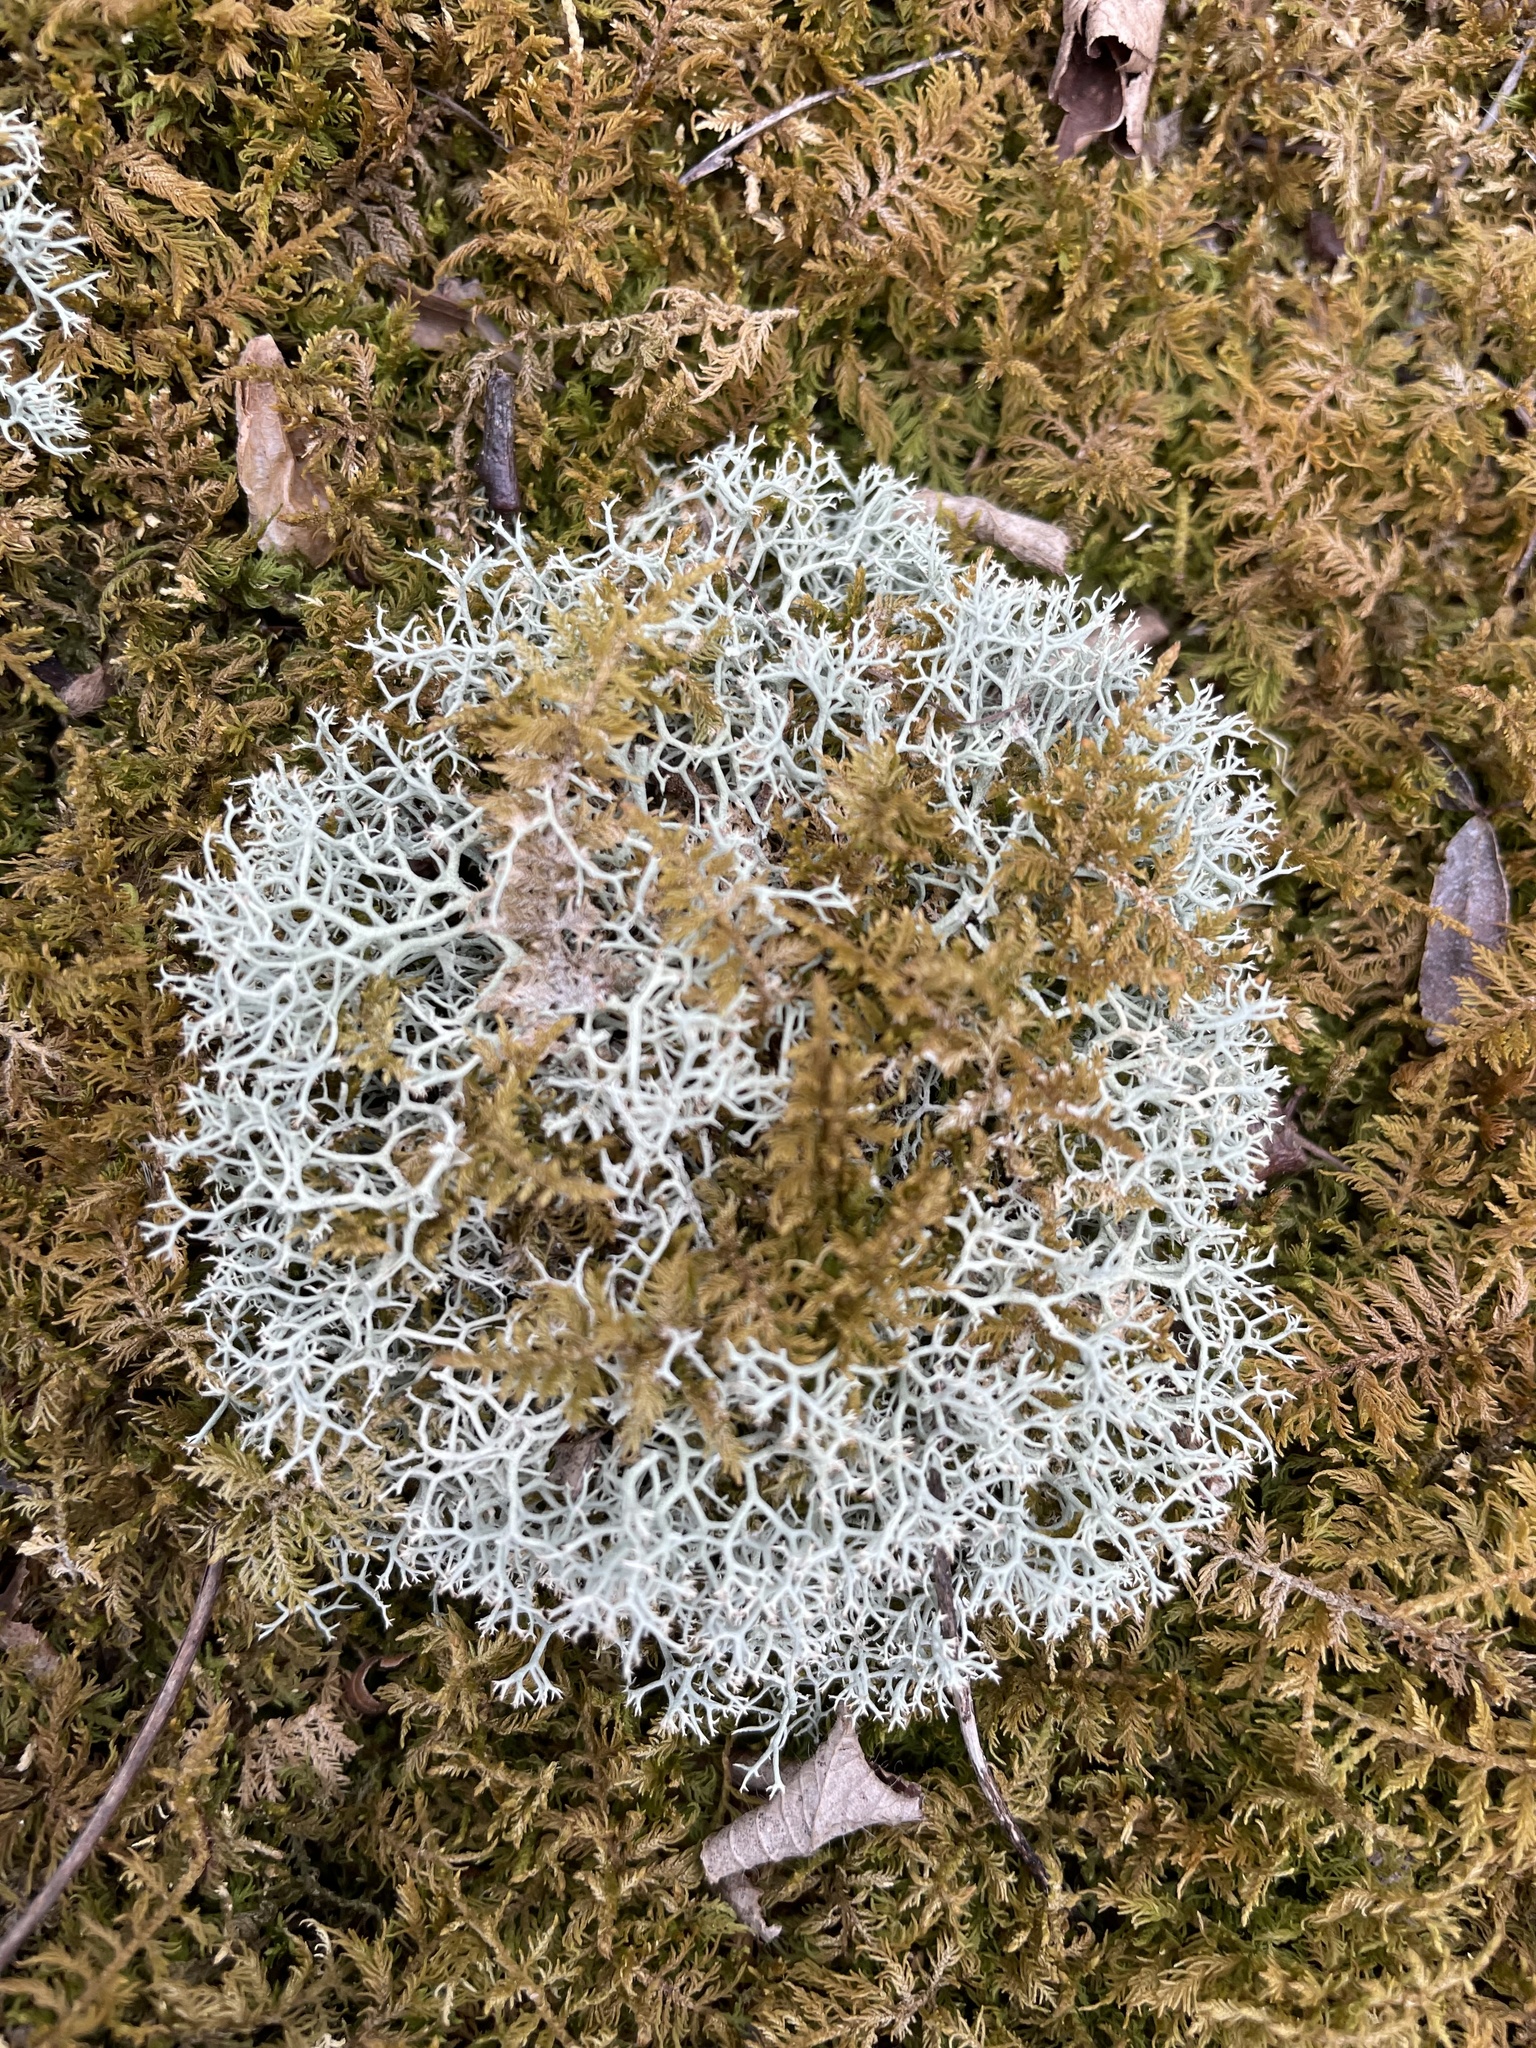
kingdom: Fungi
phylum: Ascomycota
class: Lecanoromycetes
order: Lecanorales
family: Cladoniaceae
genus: Cladonia
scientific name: Cladonia subtenuis
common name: Dixie reindeer lichen
